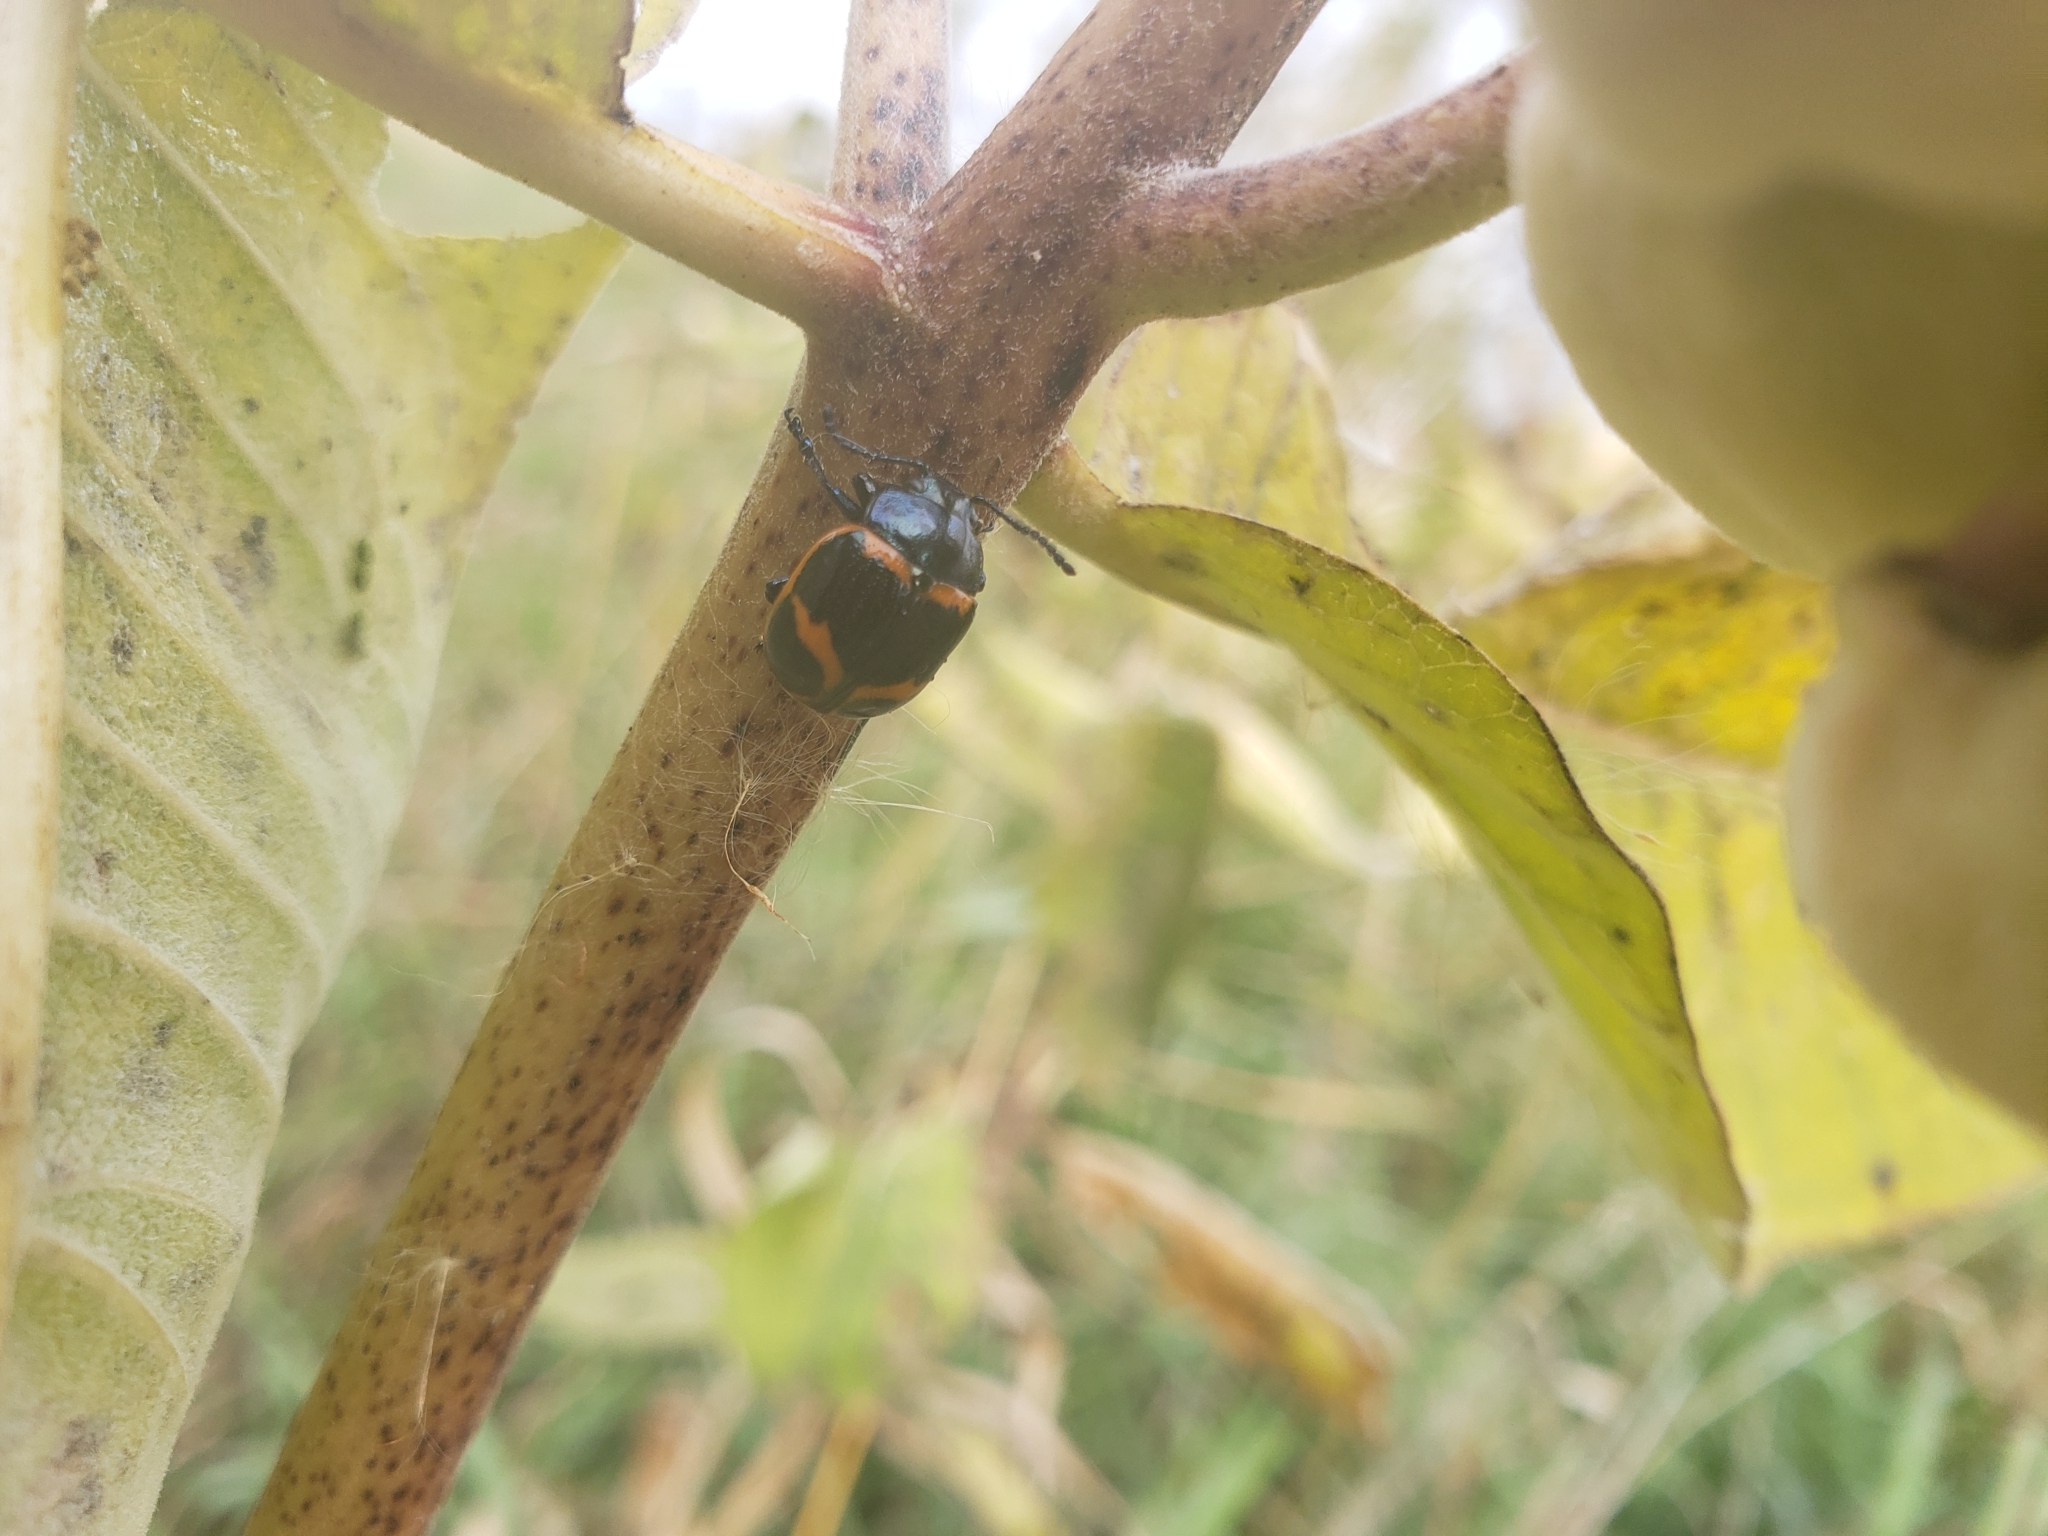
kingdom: Animalia
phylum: Arthropoda
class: Insecta
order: Coleoptera
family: Chrysomelidae
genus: Labidomera
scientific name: Labidomera clivicollis
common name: Swamp milkweed leaf beetle
